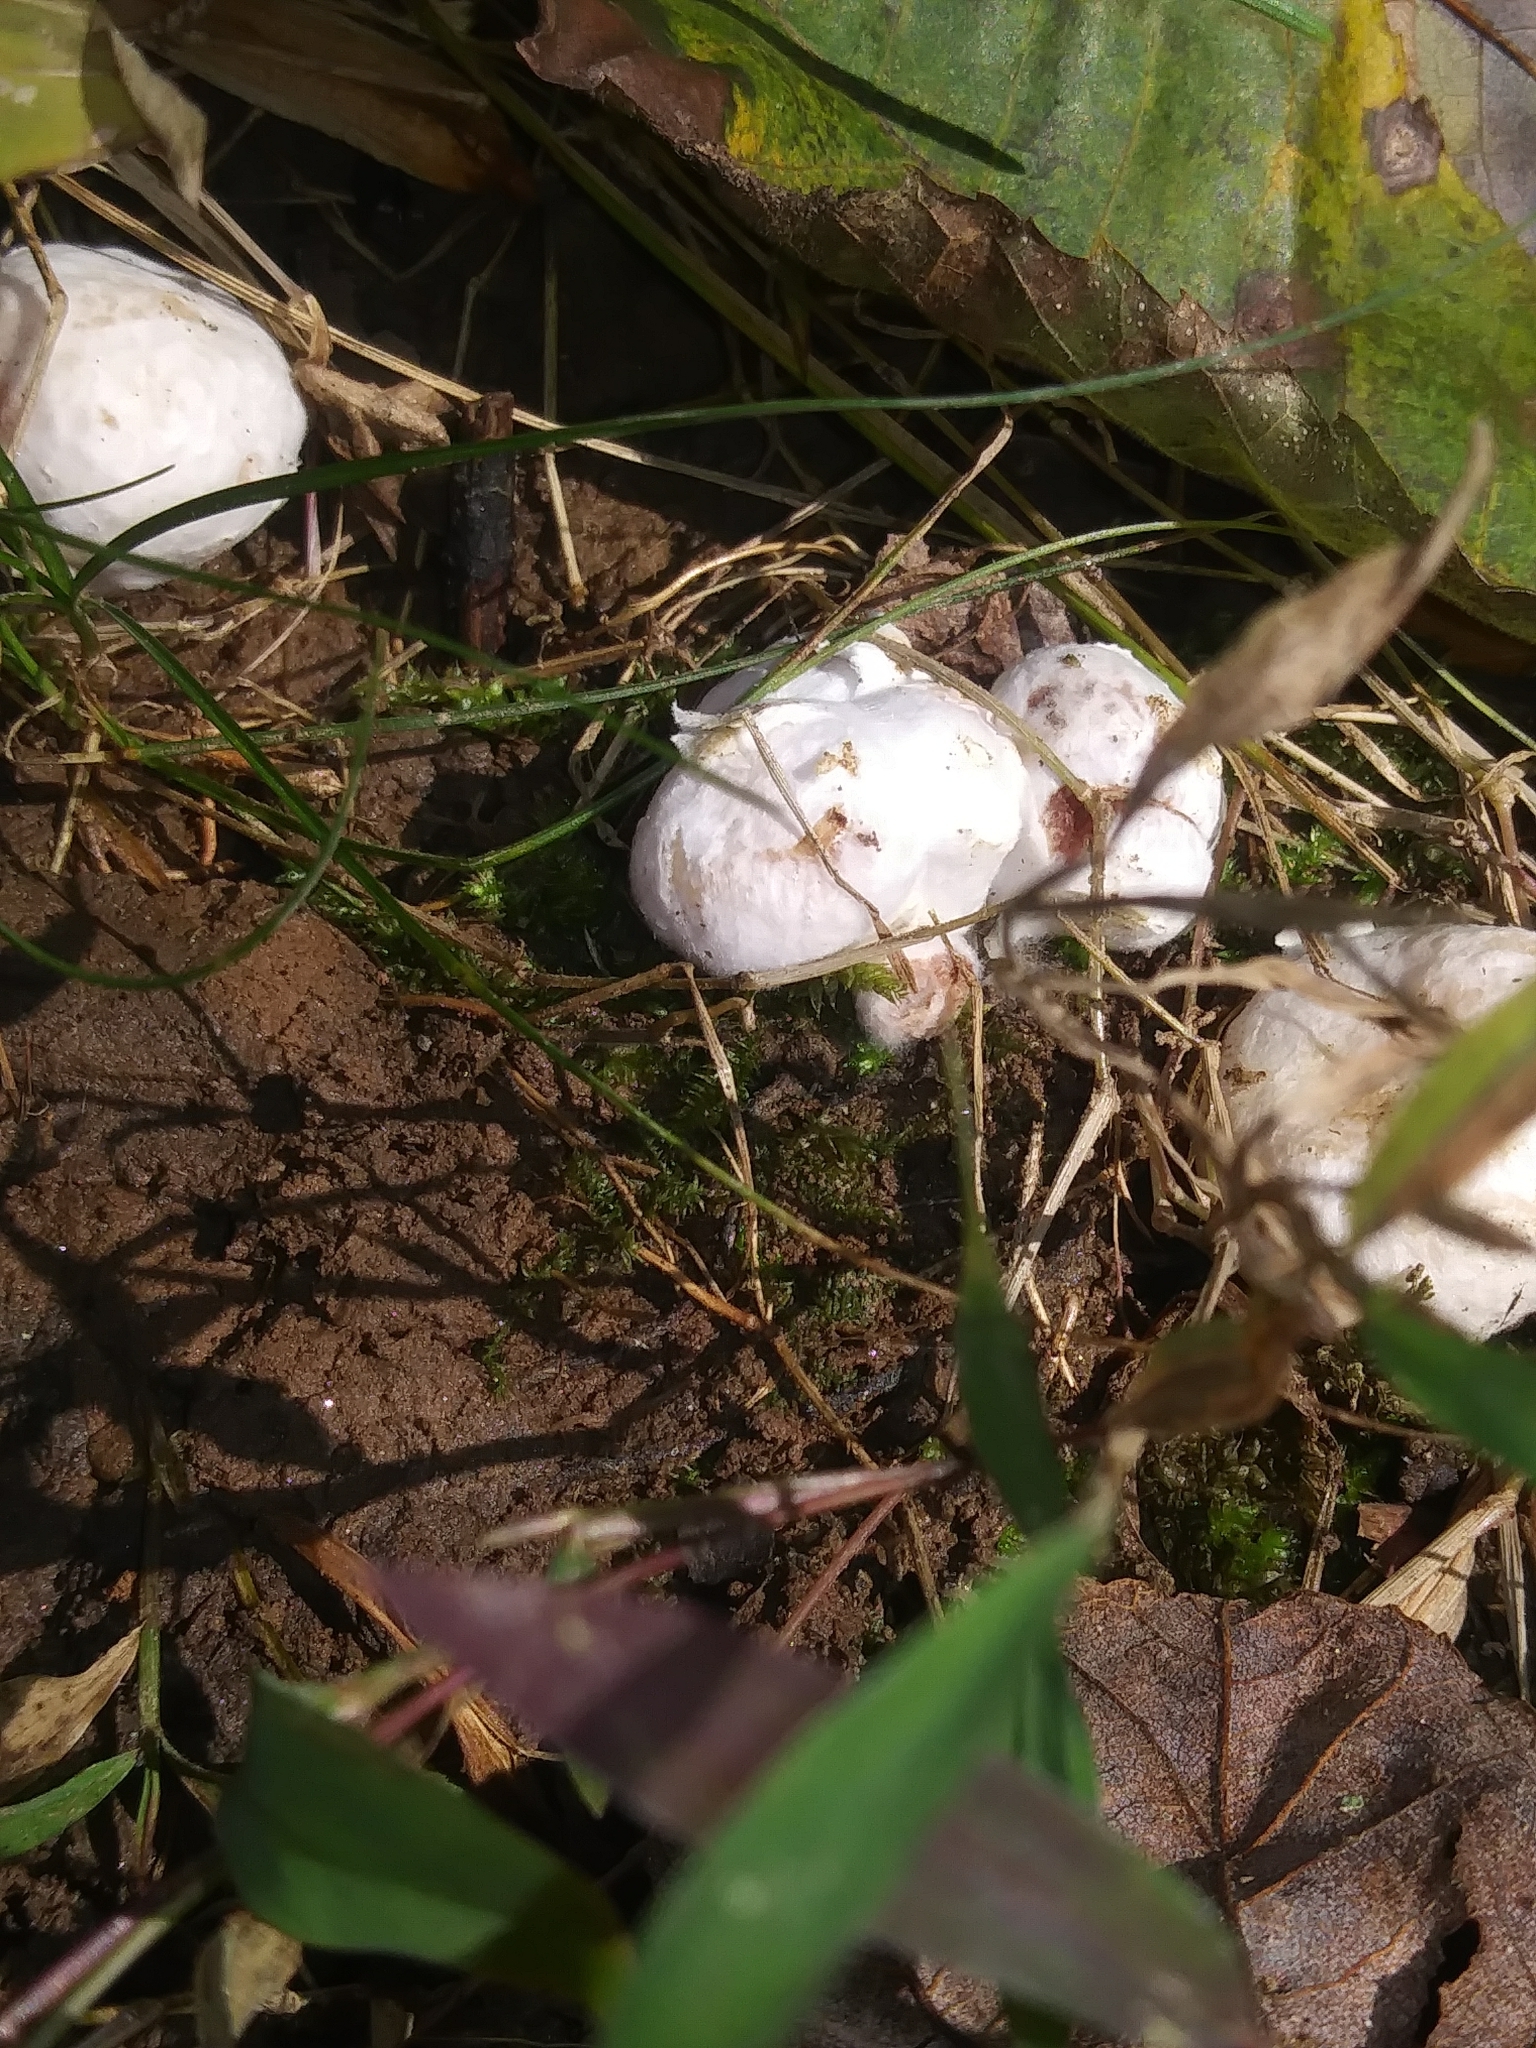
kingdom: Fungi
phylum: Basidiomycota
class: Agaricomycetes
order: Agaricales
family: Entolomataceae
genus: Entoloma
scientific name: Entoloma abortivum
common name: Aborted entoloma
